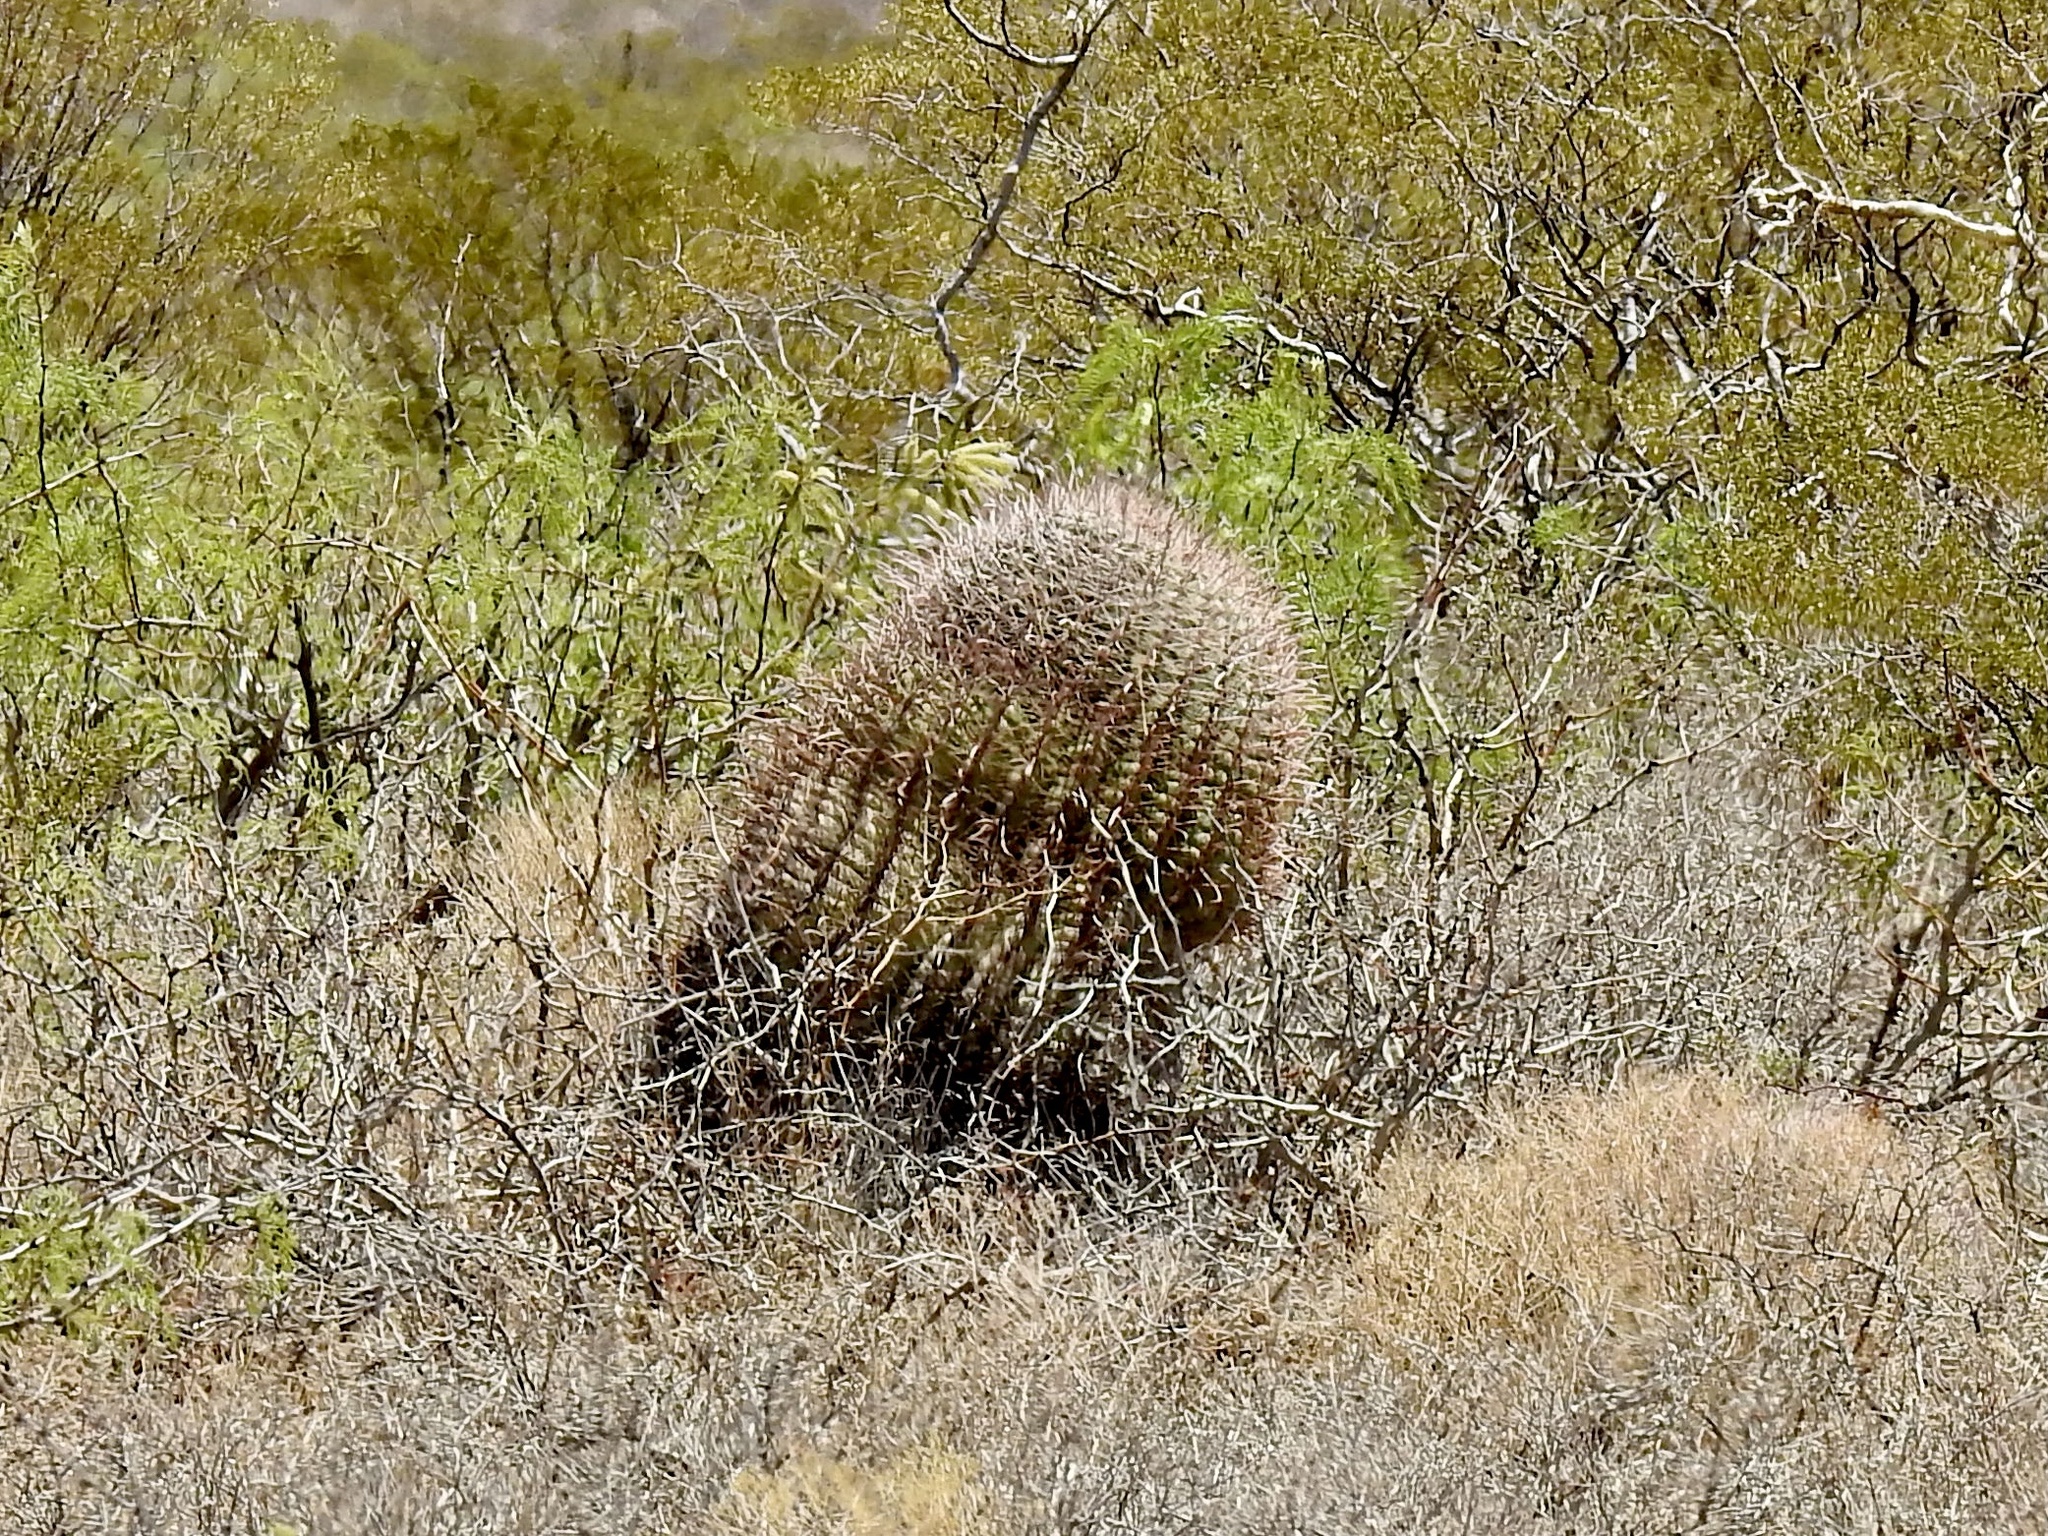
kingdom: Plantae
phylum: Tracheophyta
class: Magnoliopsida
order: Caryophyllales
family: Cactaceae
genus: Ferocactus
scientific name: Ferocactus wislizeni
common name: Candy barrel cactus
